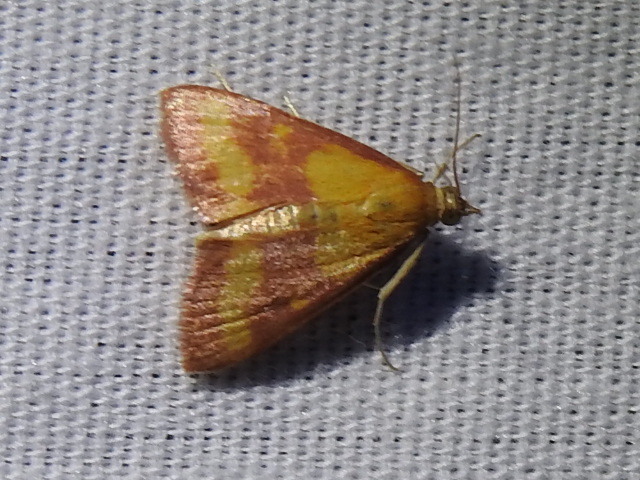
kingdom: Animalia
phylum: Arthropoda
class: Insecta
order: Lepidoptera
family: Crambidae
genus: Pyrausta
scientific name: Pyrausta laticlavia
